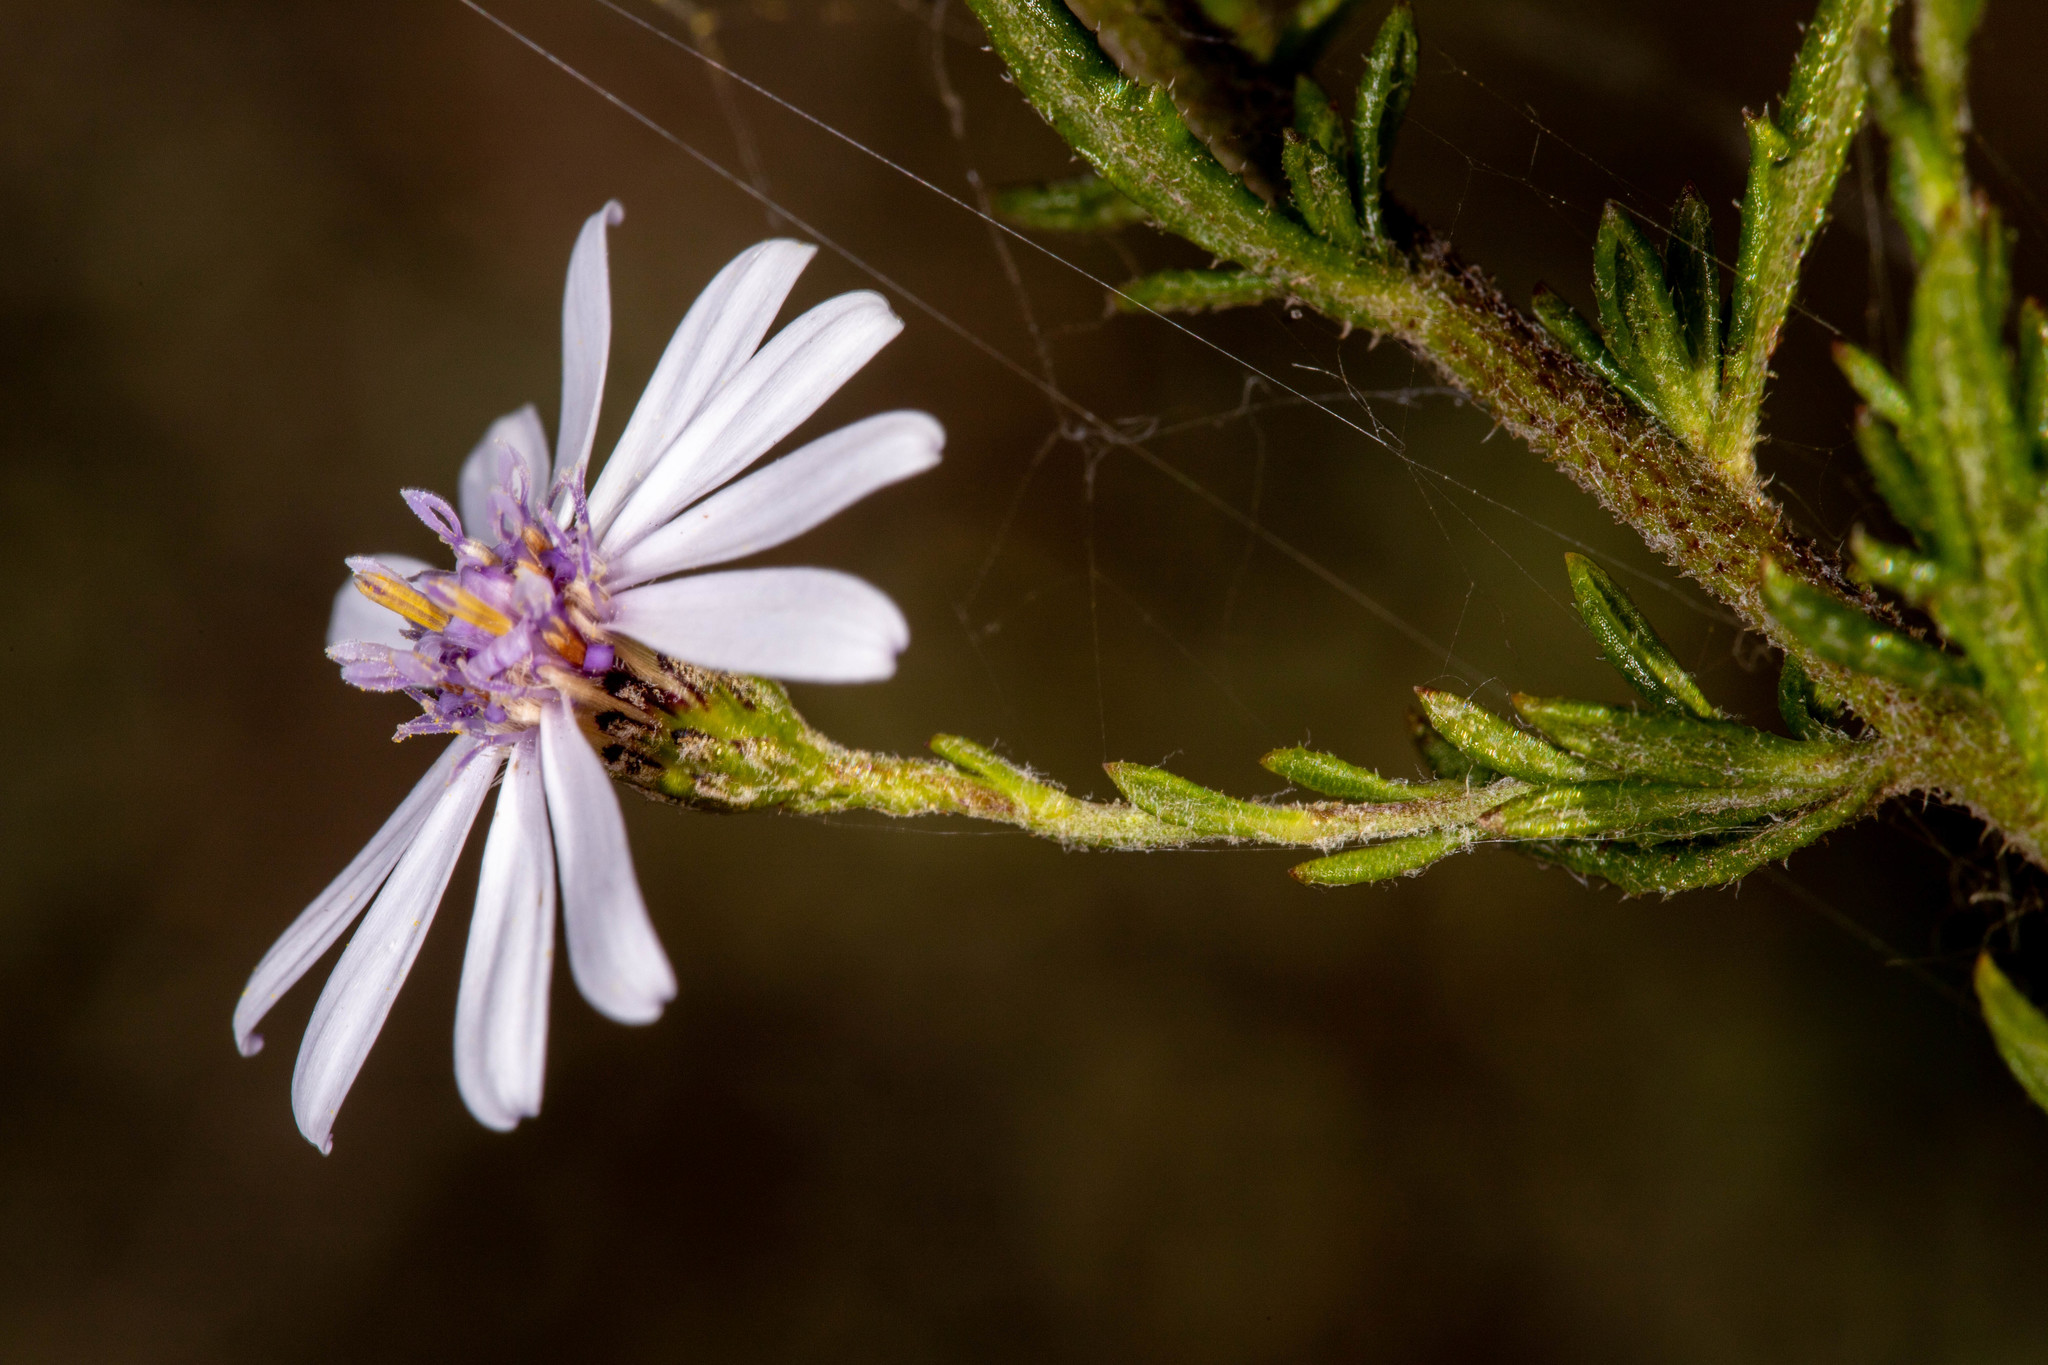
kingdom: Plantae
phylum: Tracheophyta
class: Magnoliopsida
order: Asterales
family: Asteraceae
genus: Olearia
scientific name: Olearia paucidentata
